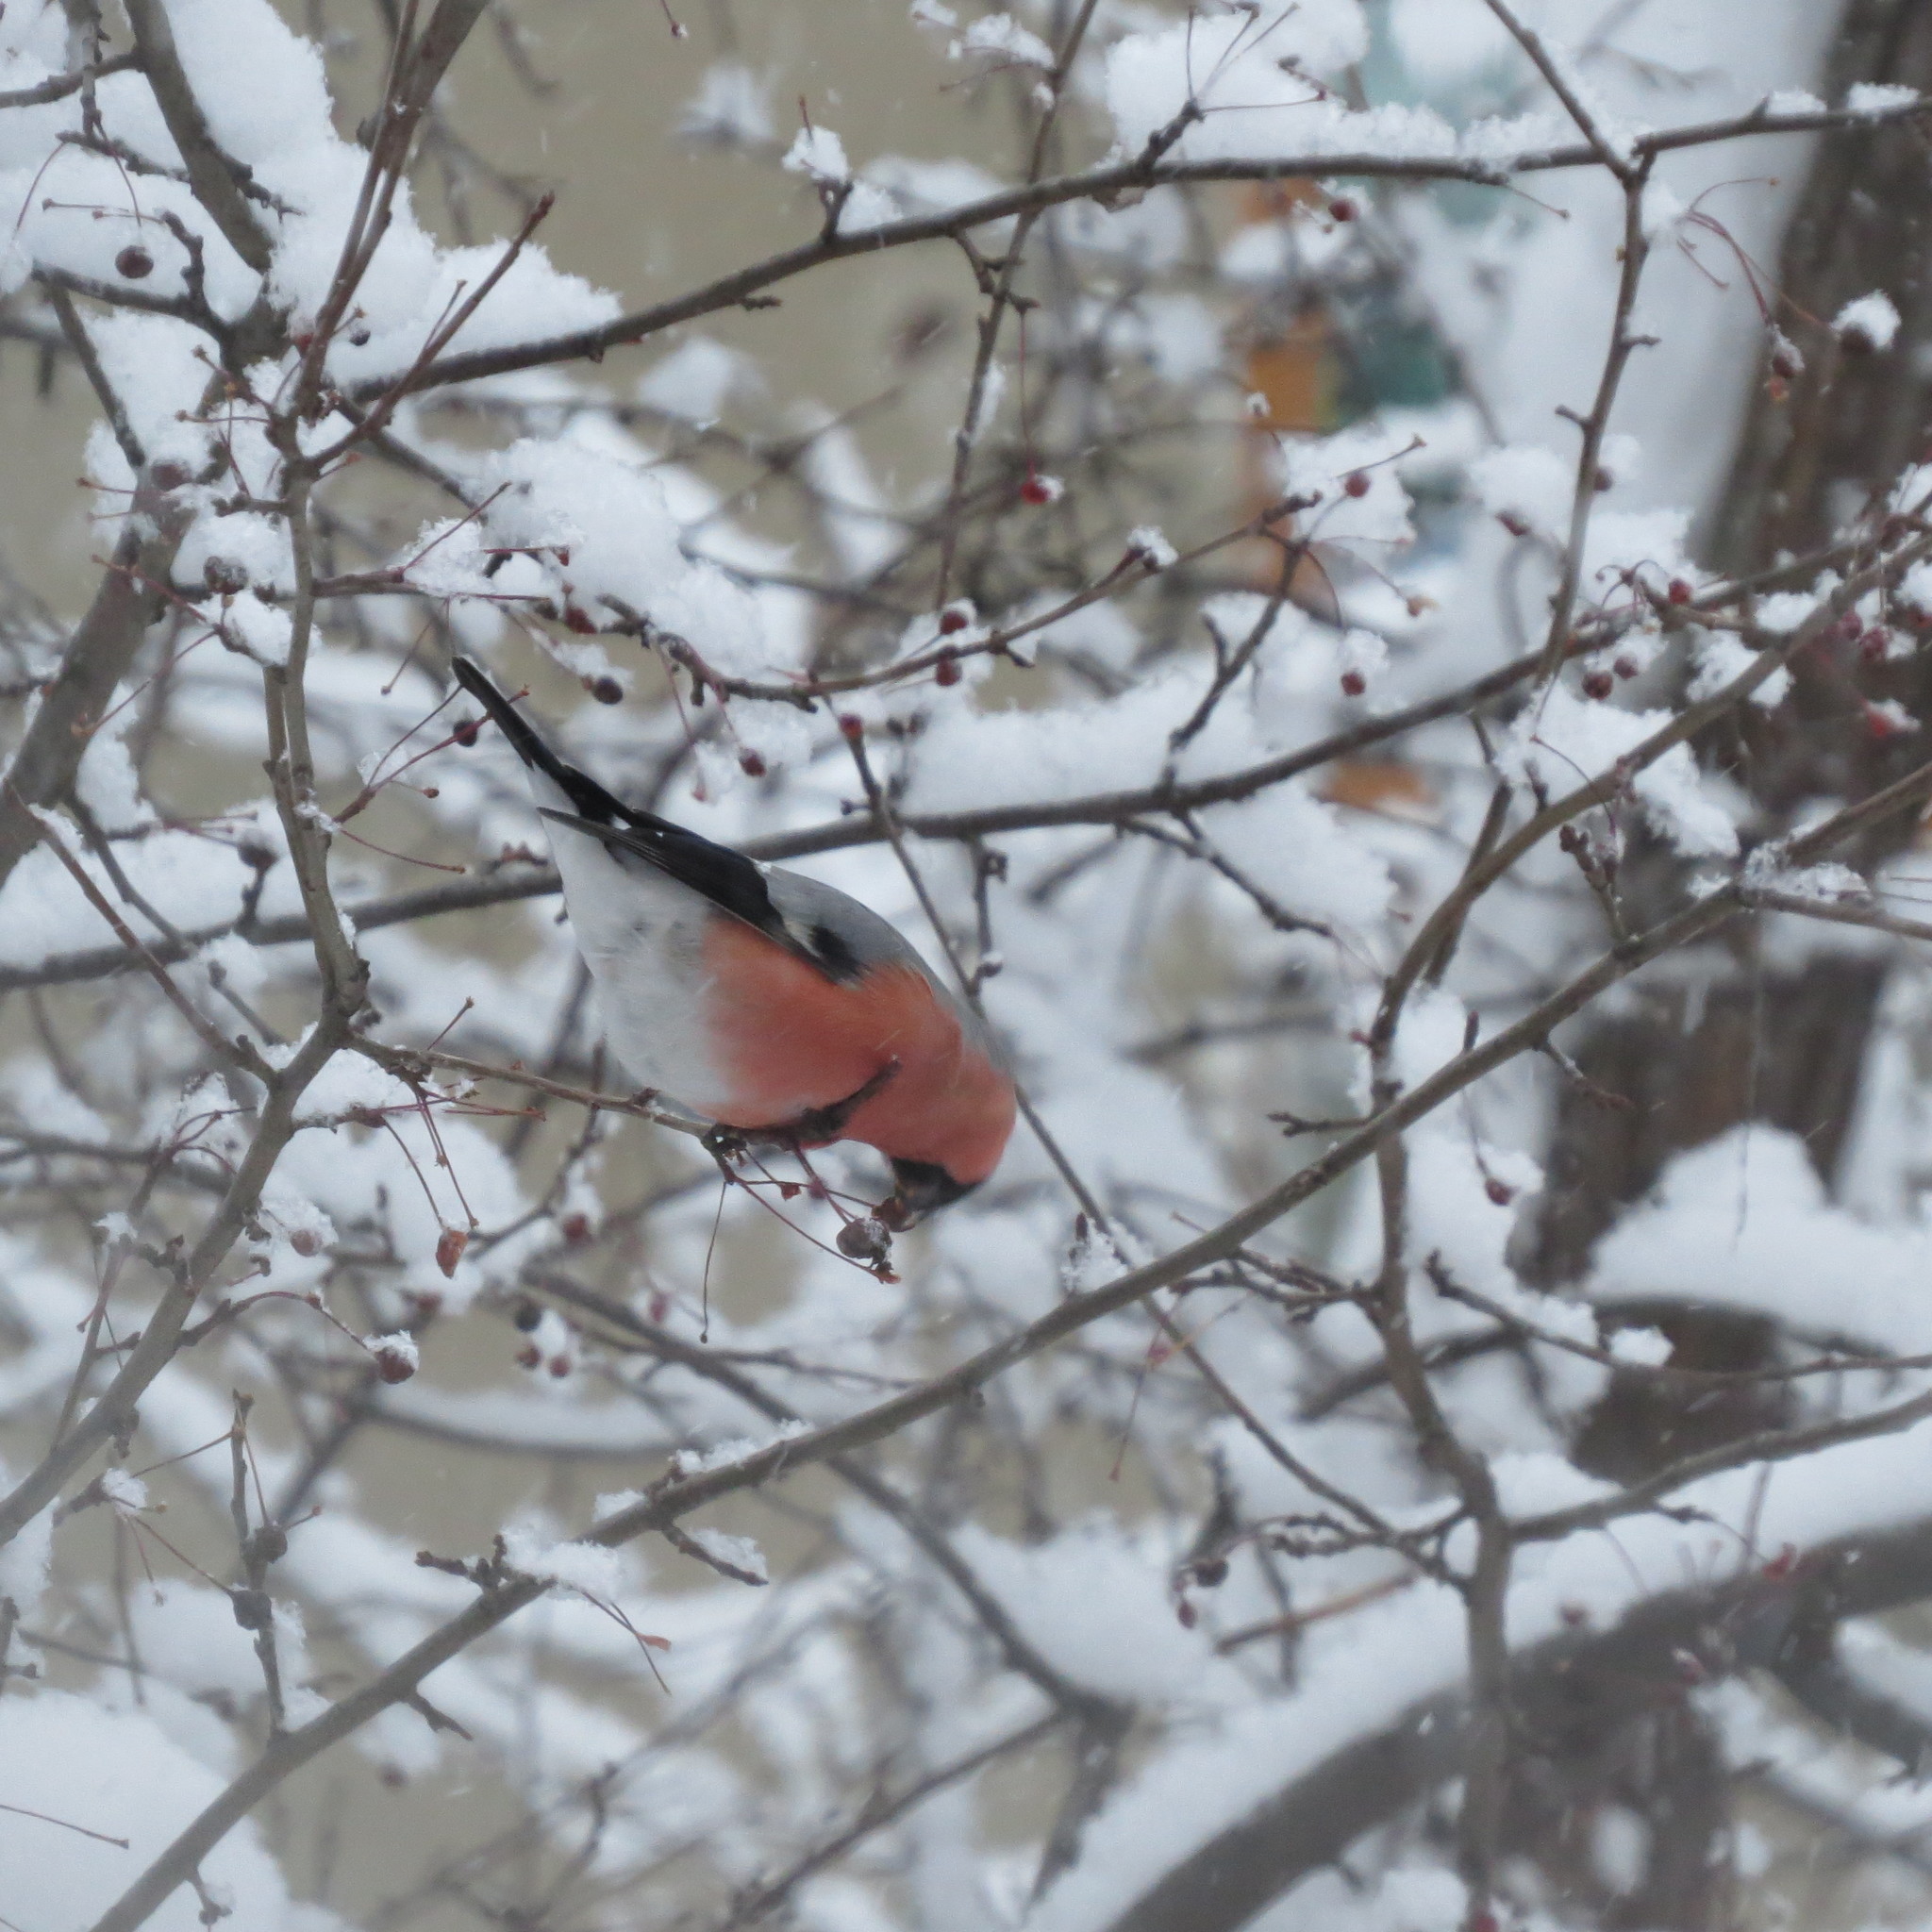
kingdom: Animalia
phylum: Chordata
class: Aves
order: Passeriformes
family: Fringillidae
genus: Pyrrhula
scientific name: Pyrrhula pyrrhula
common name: Eurasian bullfinch
